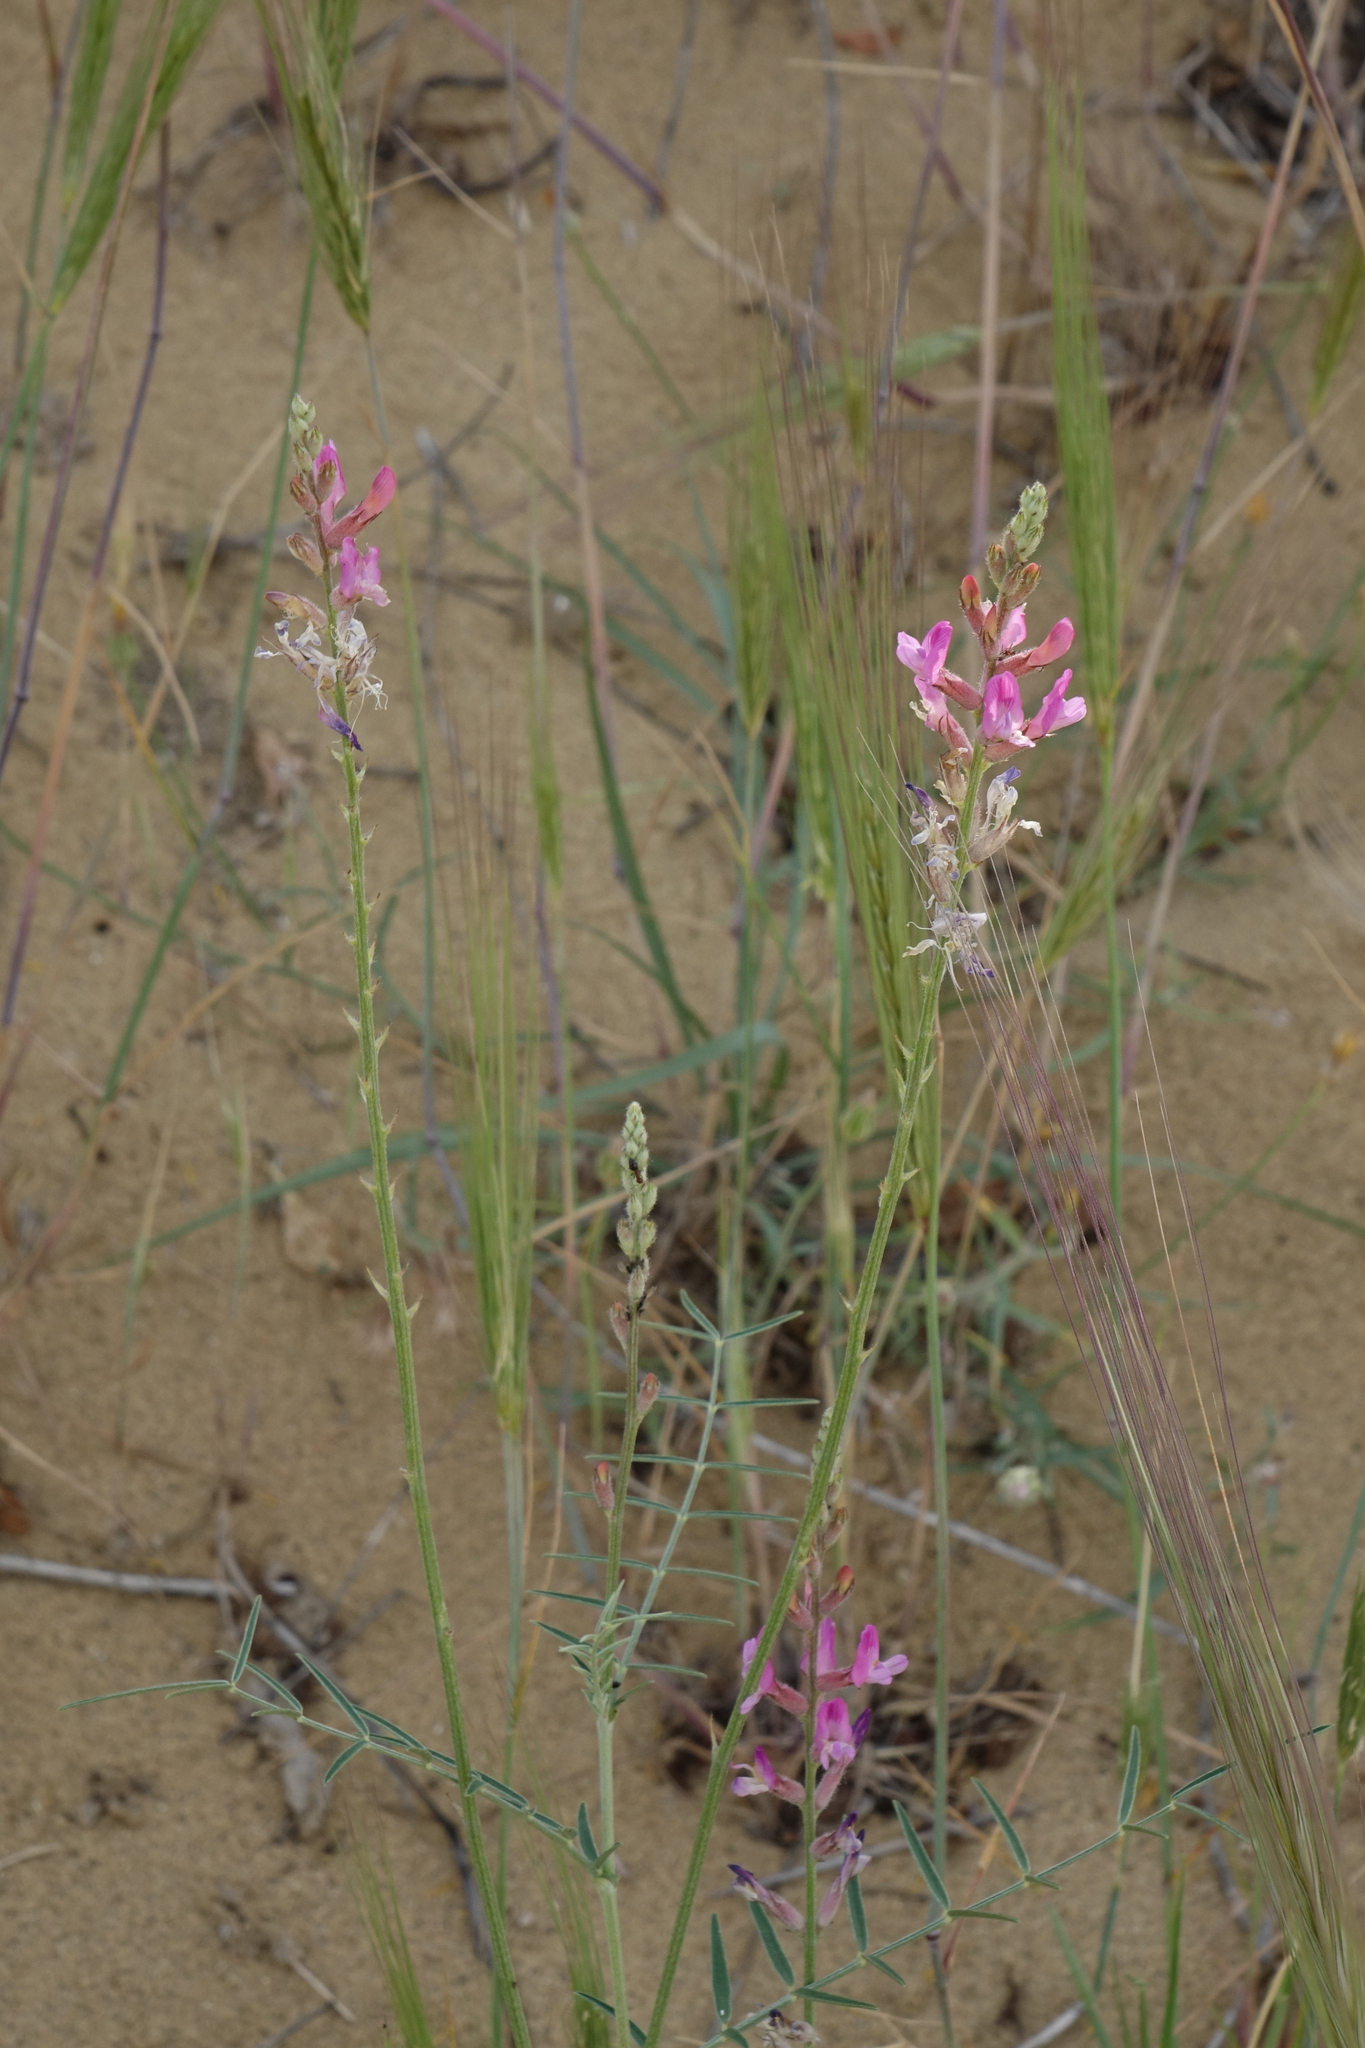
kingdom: Plantae
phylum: Tracheophyta
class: Magnoliopsida
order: Fabales
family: Fabaceae
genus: Astragalus
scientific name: Astragalus varius
